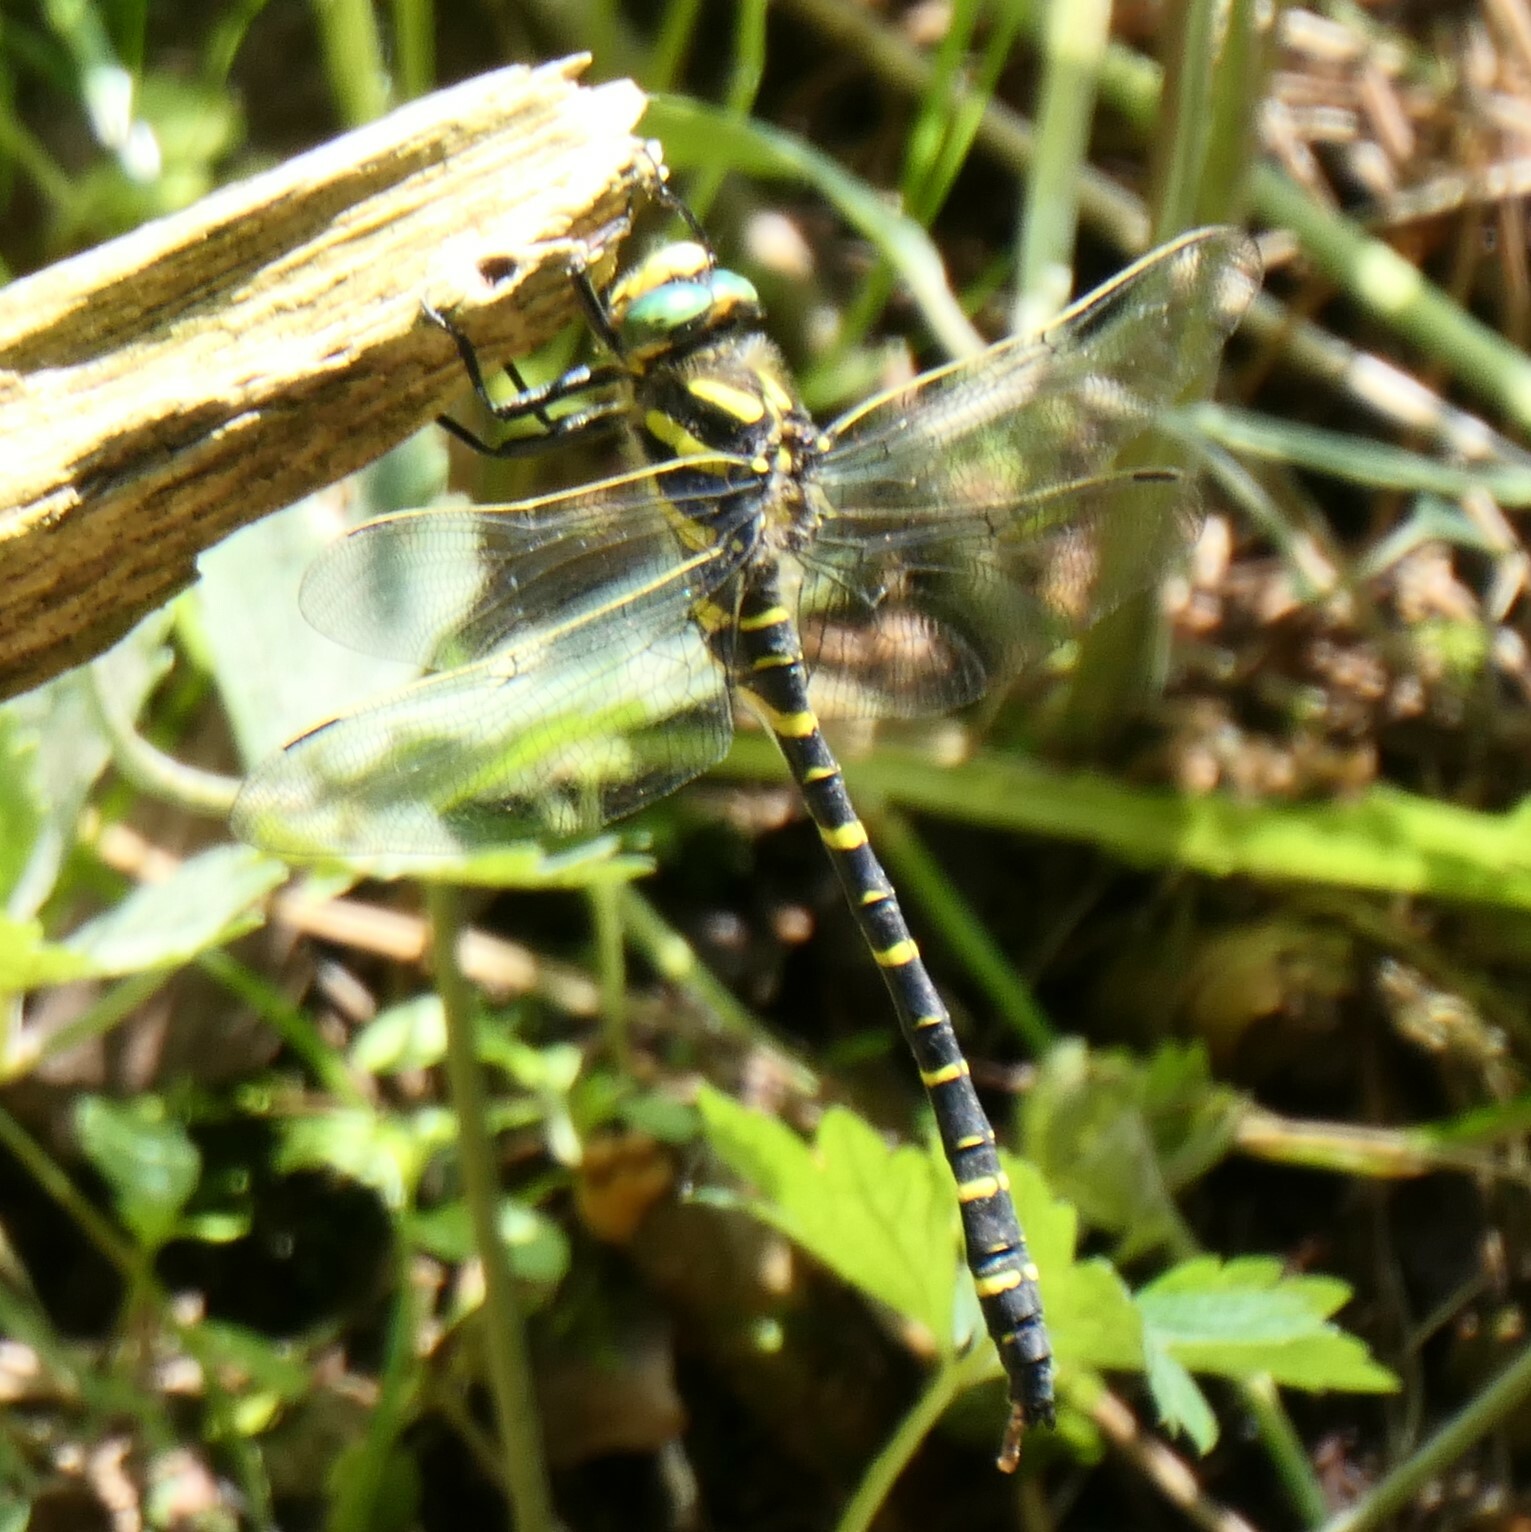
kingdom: Animalia
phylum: Arthropoda
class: Insecta
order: Odonata
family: Cordulegastridae
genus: Cordulegaster
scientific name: Cordulegaster boltonii
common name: Golden-ringed dragonfly
